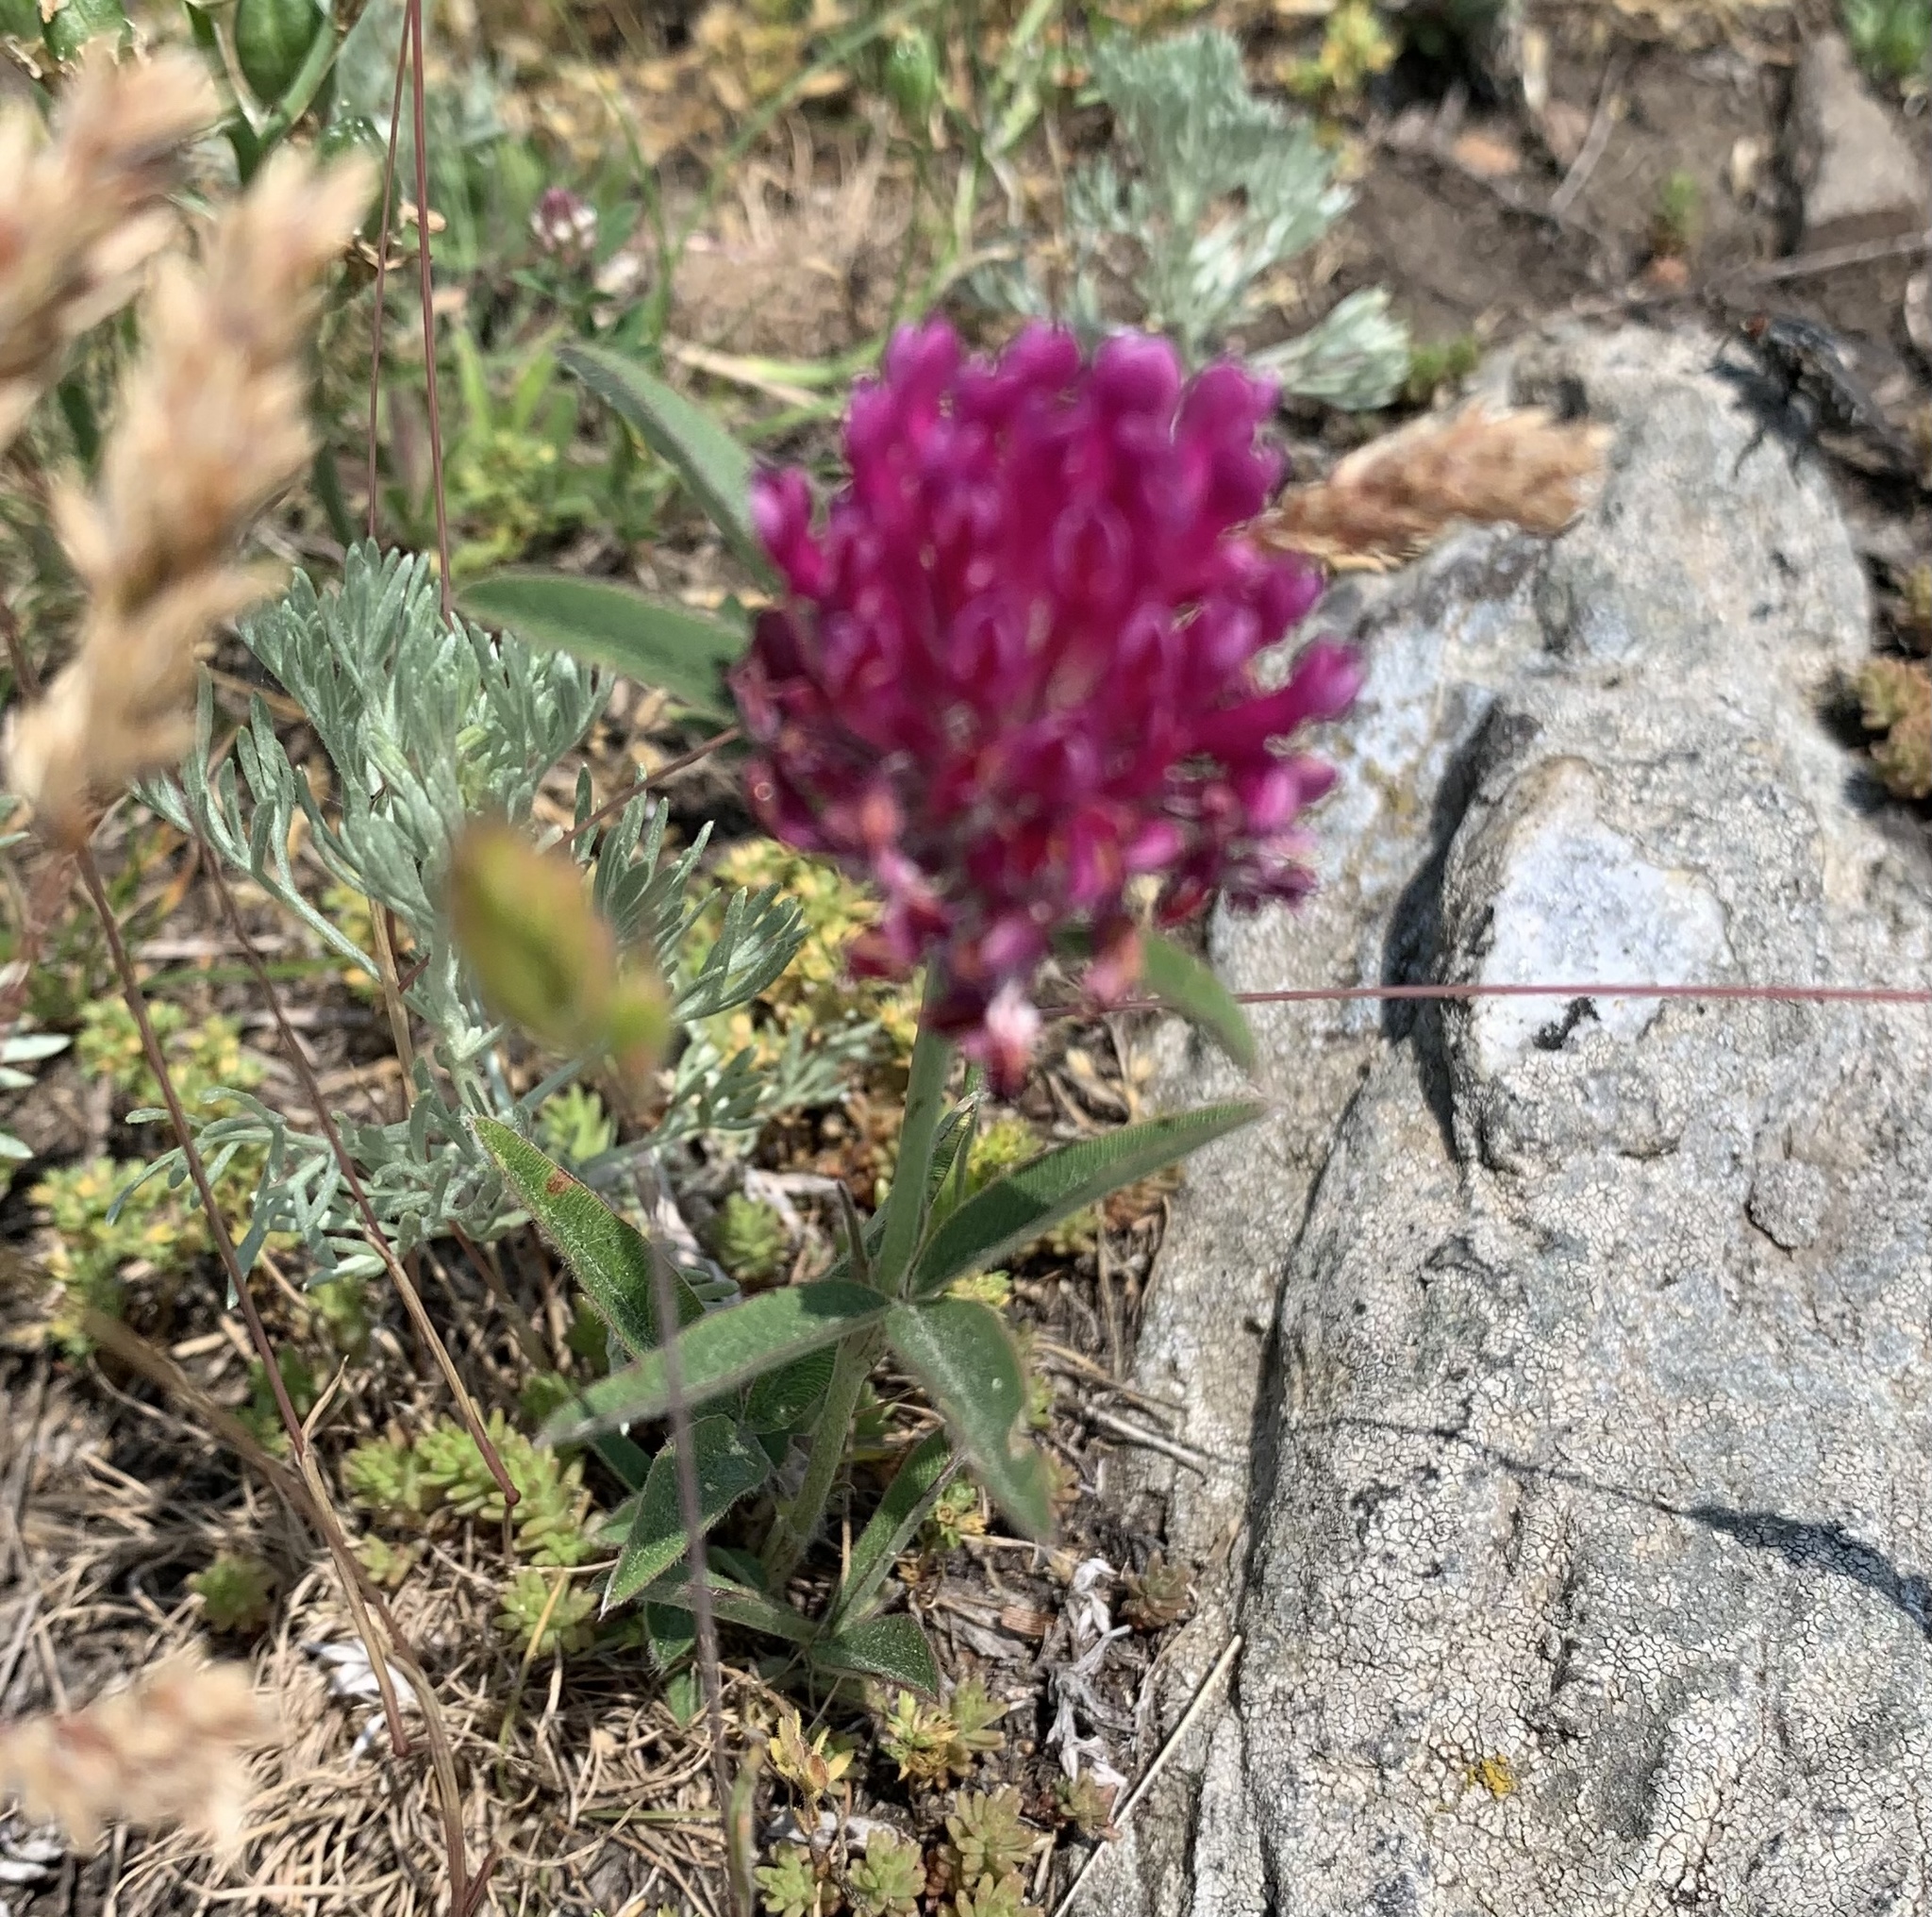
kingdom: Plantae
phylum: Tracheophyta
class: Magnoliopsida
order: Fabales
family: Fabaceae
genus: Trifolium
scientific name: Trifolium alpestre
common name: Owl-head clover
